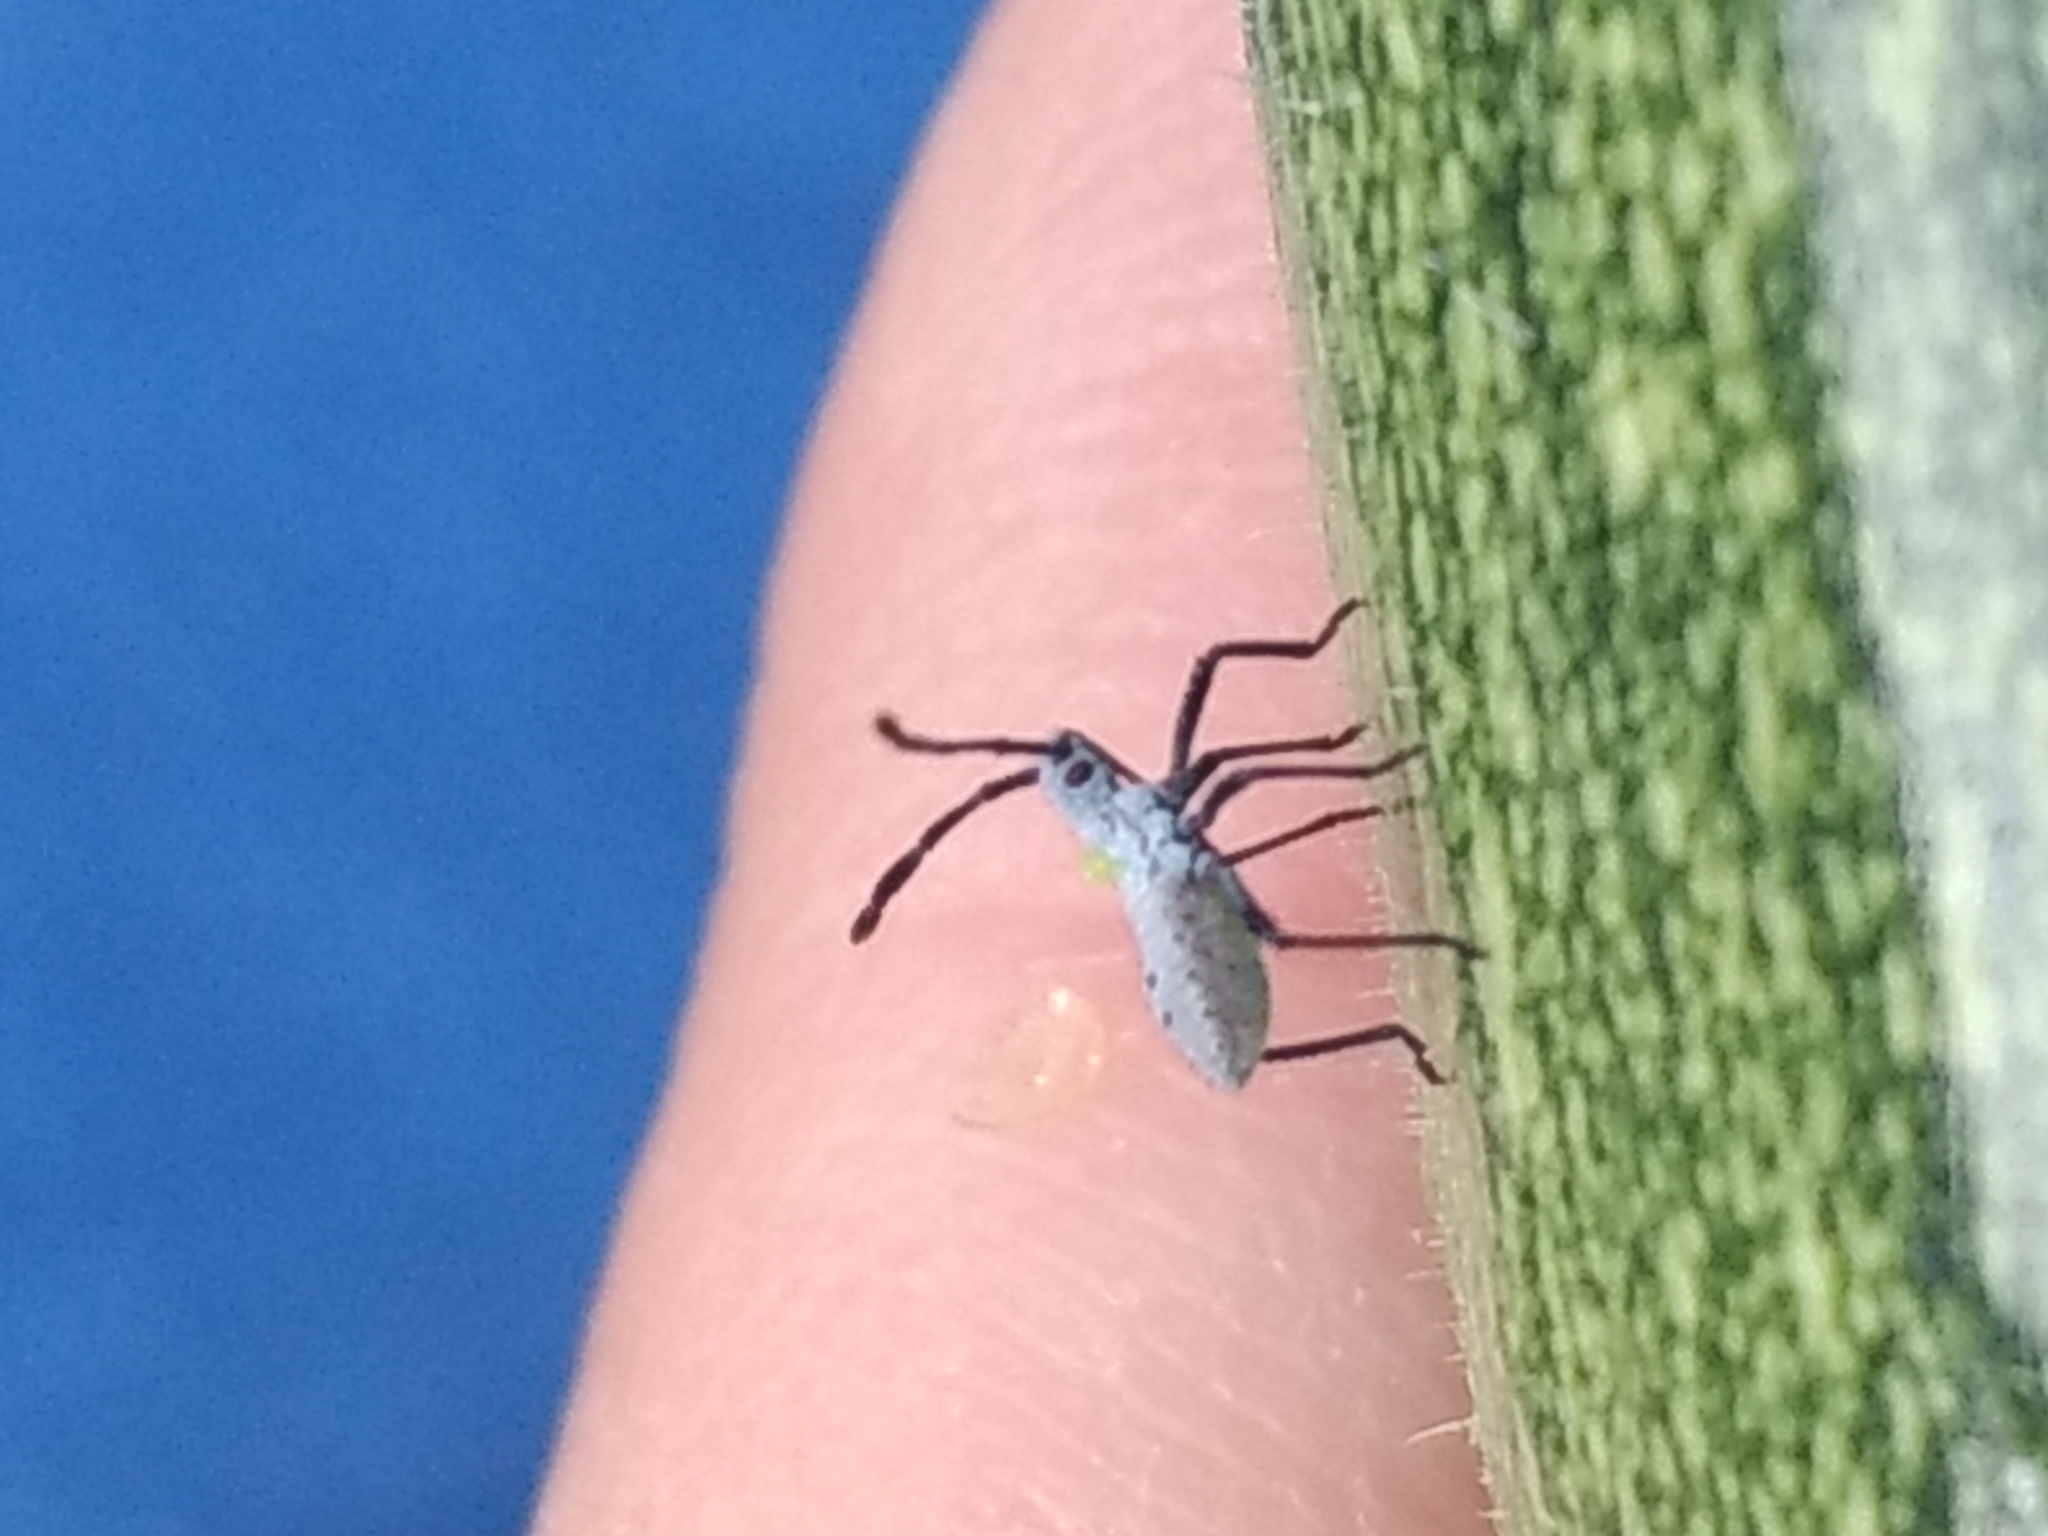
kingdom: Animalia
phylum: Arthropoda
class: Insecta
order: Hemiptera
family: Coreidae
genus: Anasa
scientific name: Anasa tristis
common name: Squash bug
